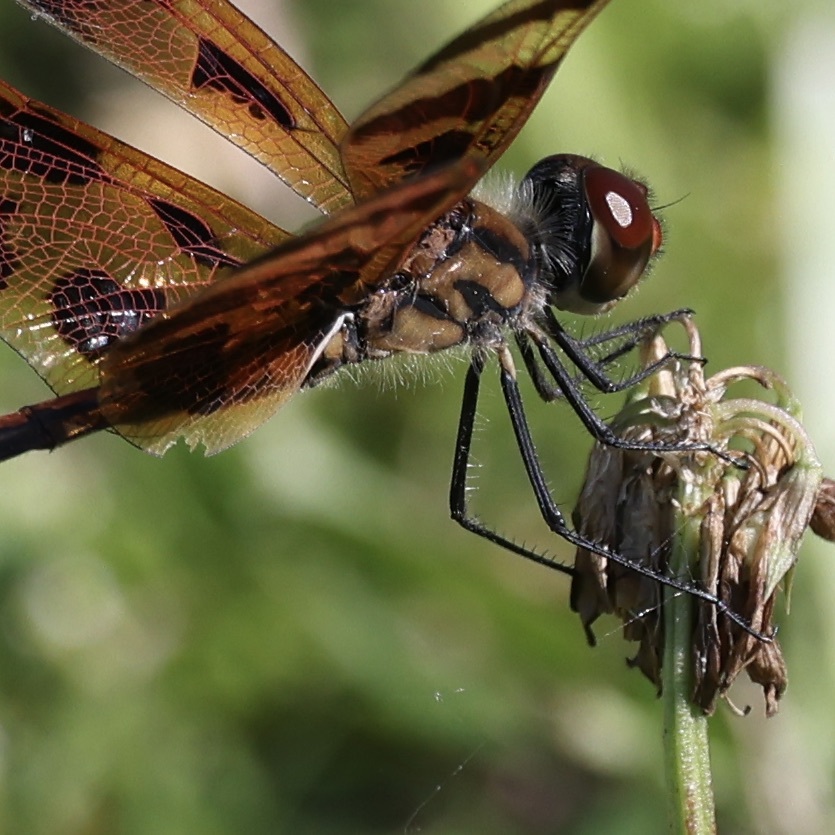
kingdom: Animalia
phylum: Arthropoda
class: Insecta
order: Odonata
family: Libellulidae
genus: Celithemis
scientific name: Celithemis eponina
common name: Halloween pennant
